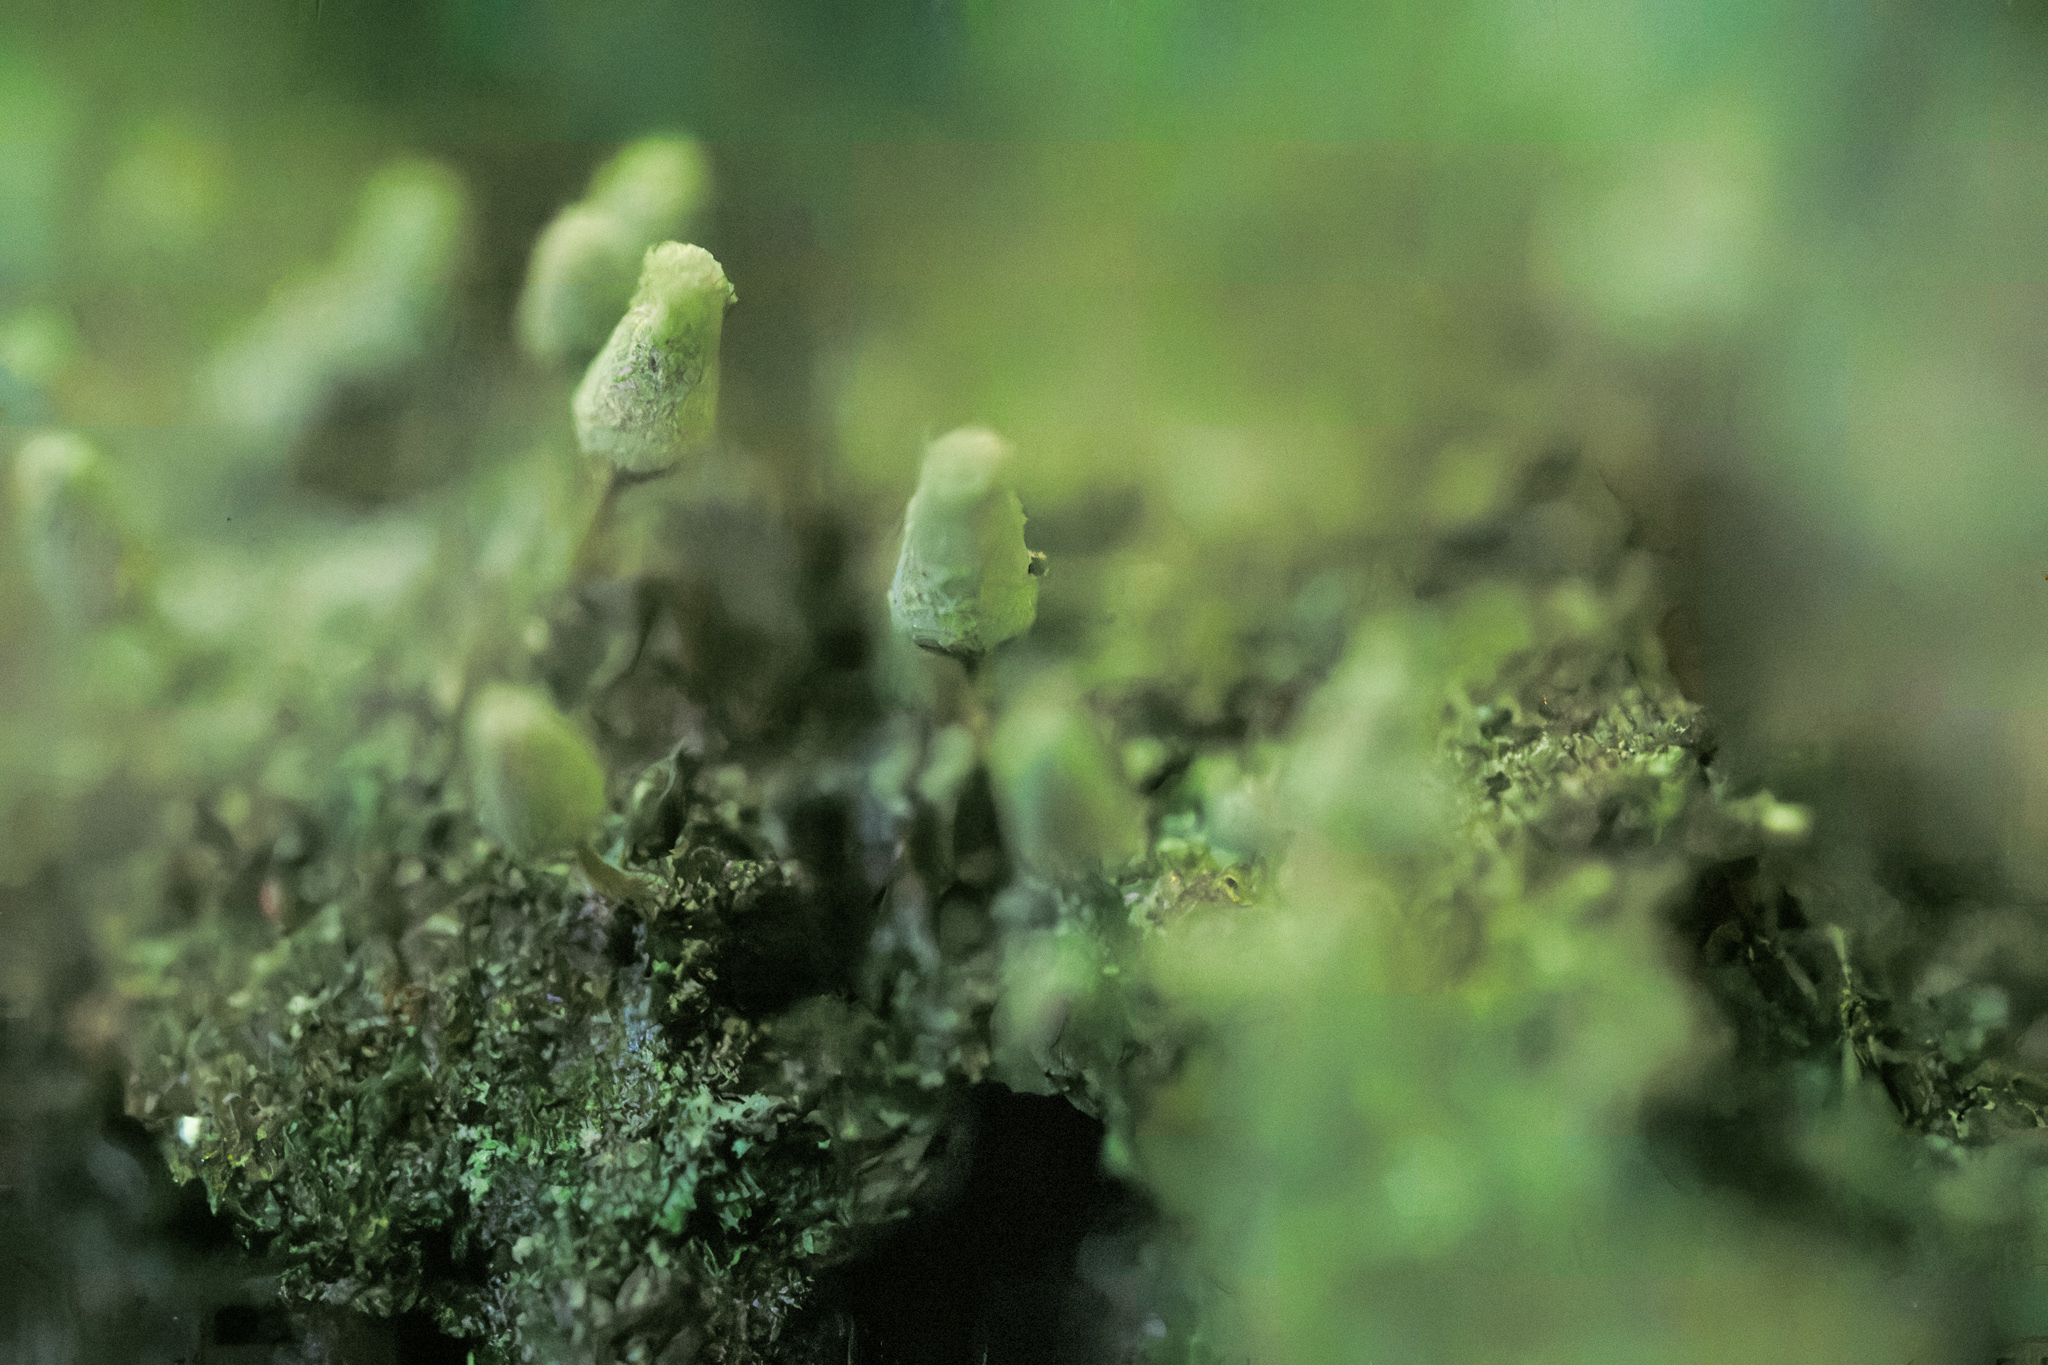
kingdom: Protozoa
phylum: Mycetozoa
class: Myxomycetes
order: Trichiales
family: Arcyriaceae
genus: Arcyria
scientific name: Arcyria cinerea
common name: White carnival candy slime mold
